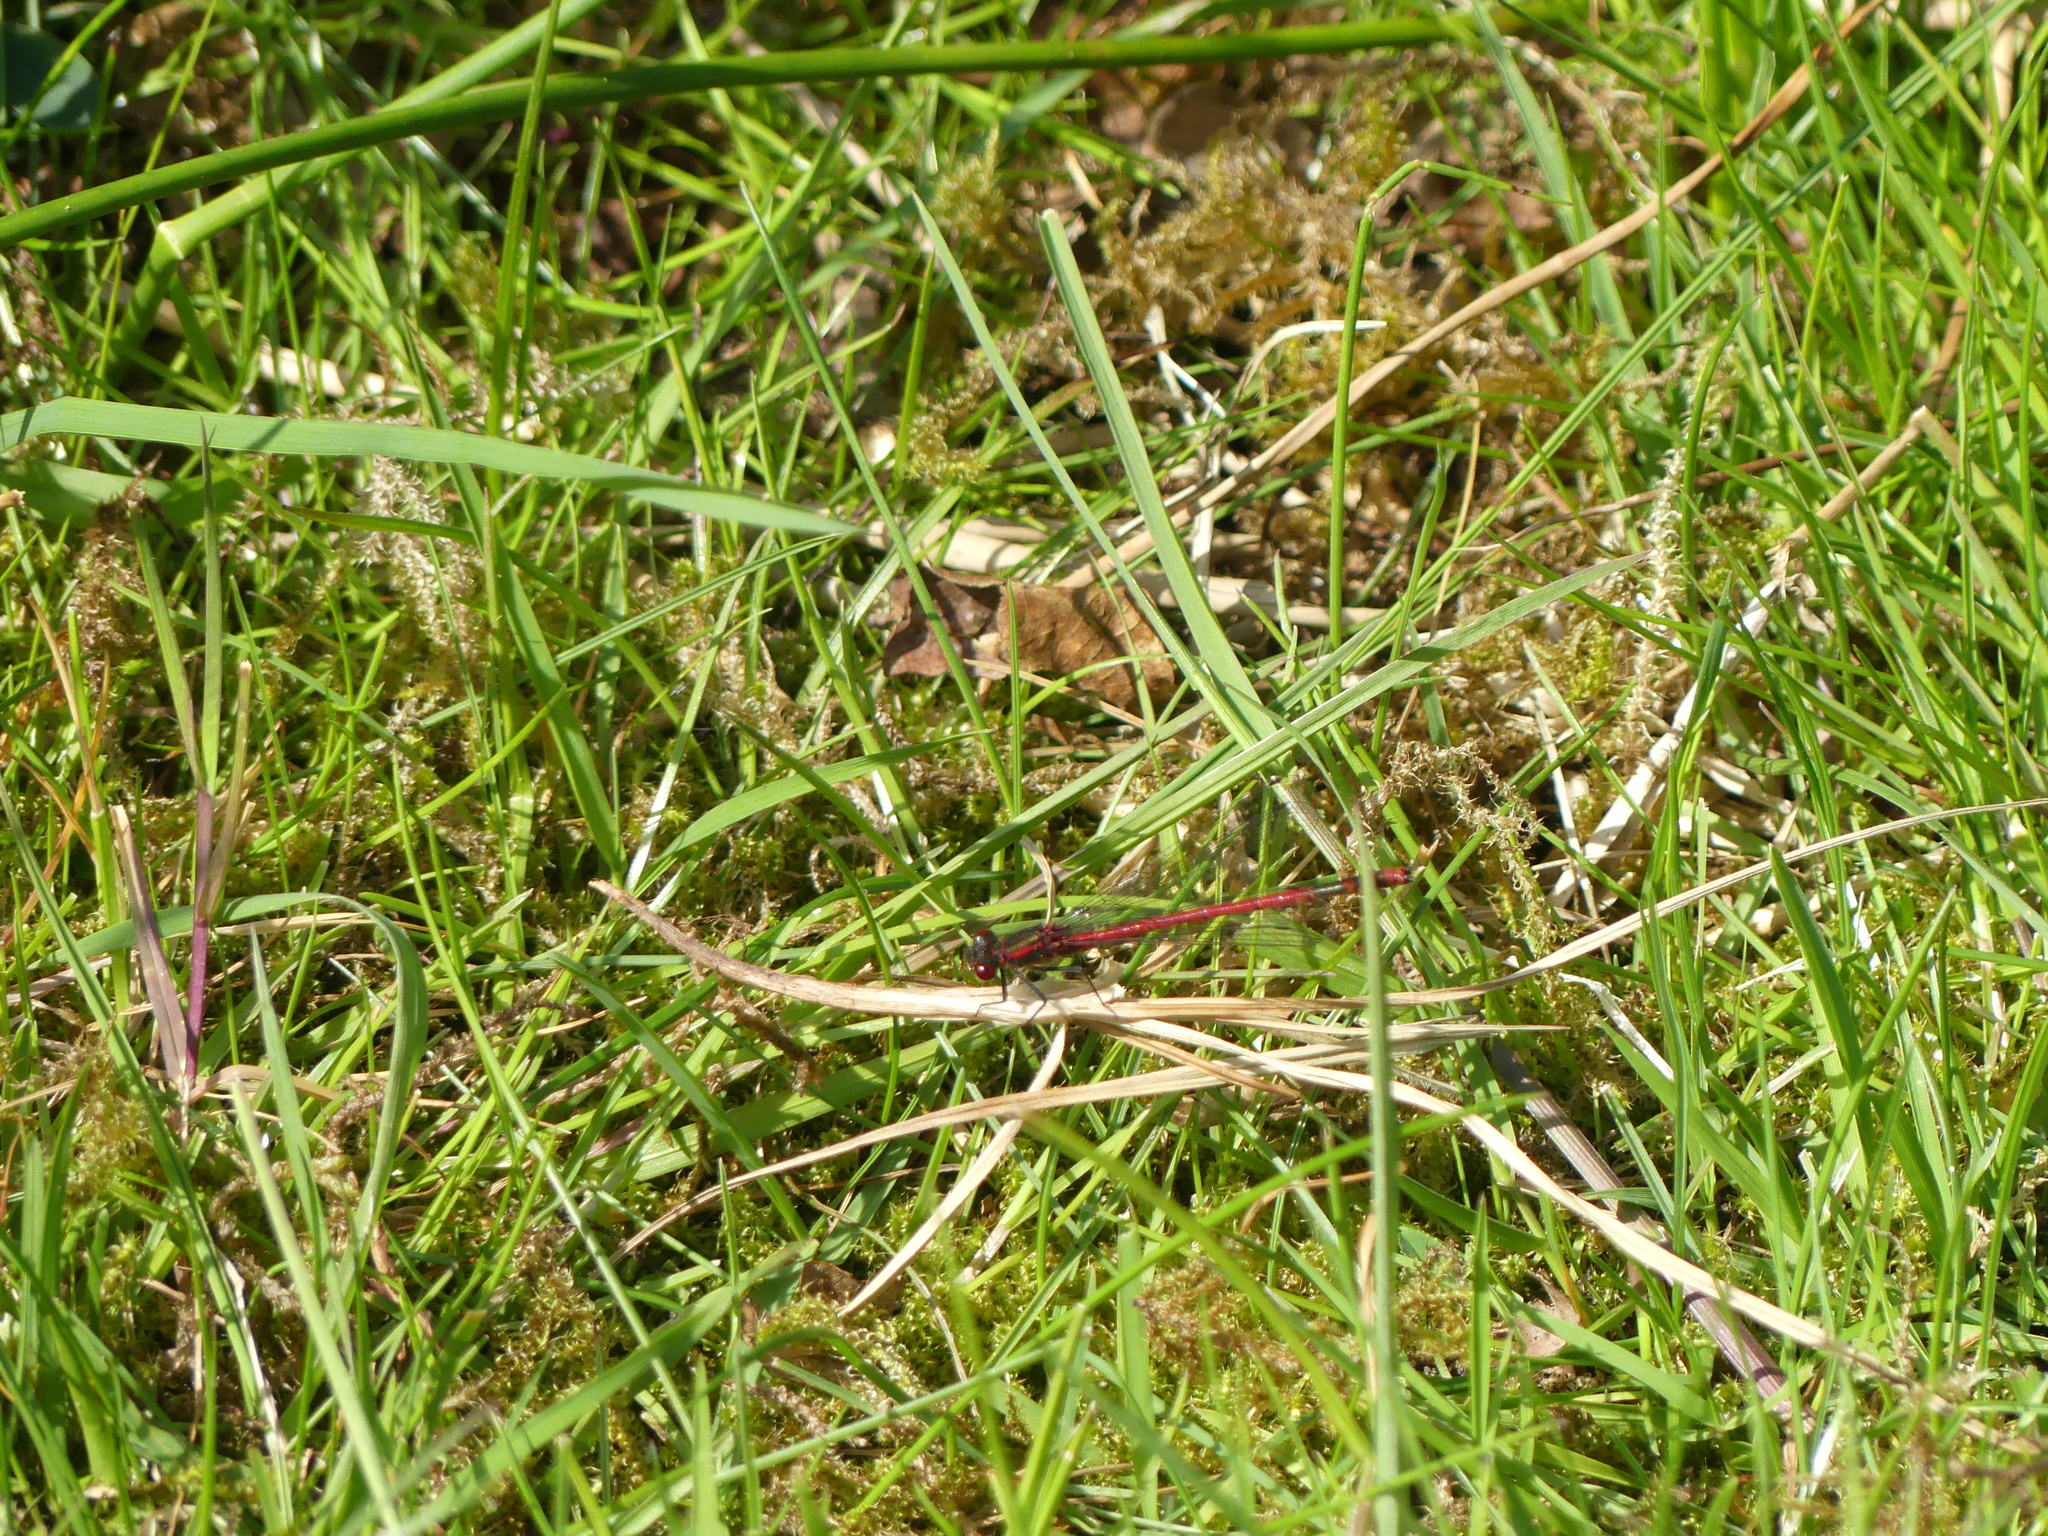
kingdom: Animalia
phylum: Arthropoda
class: Insecta
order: Odonata
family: Coenagrionidae
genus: Pyrrhosoma
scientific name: Pyrrhosoma nymphula
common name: Large red damsel
